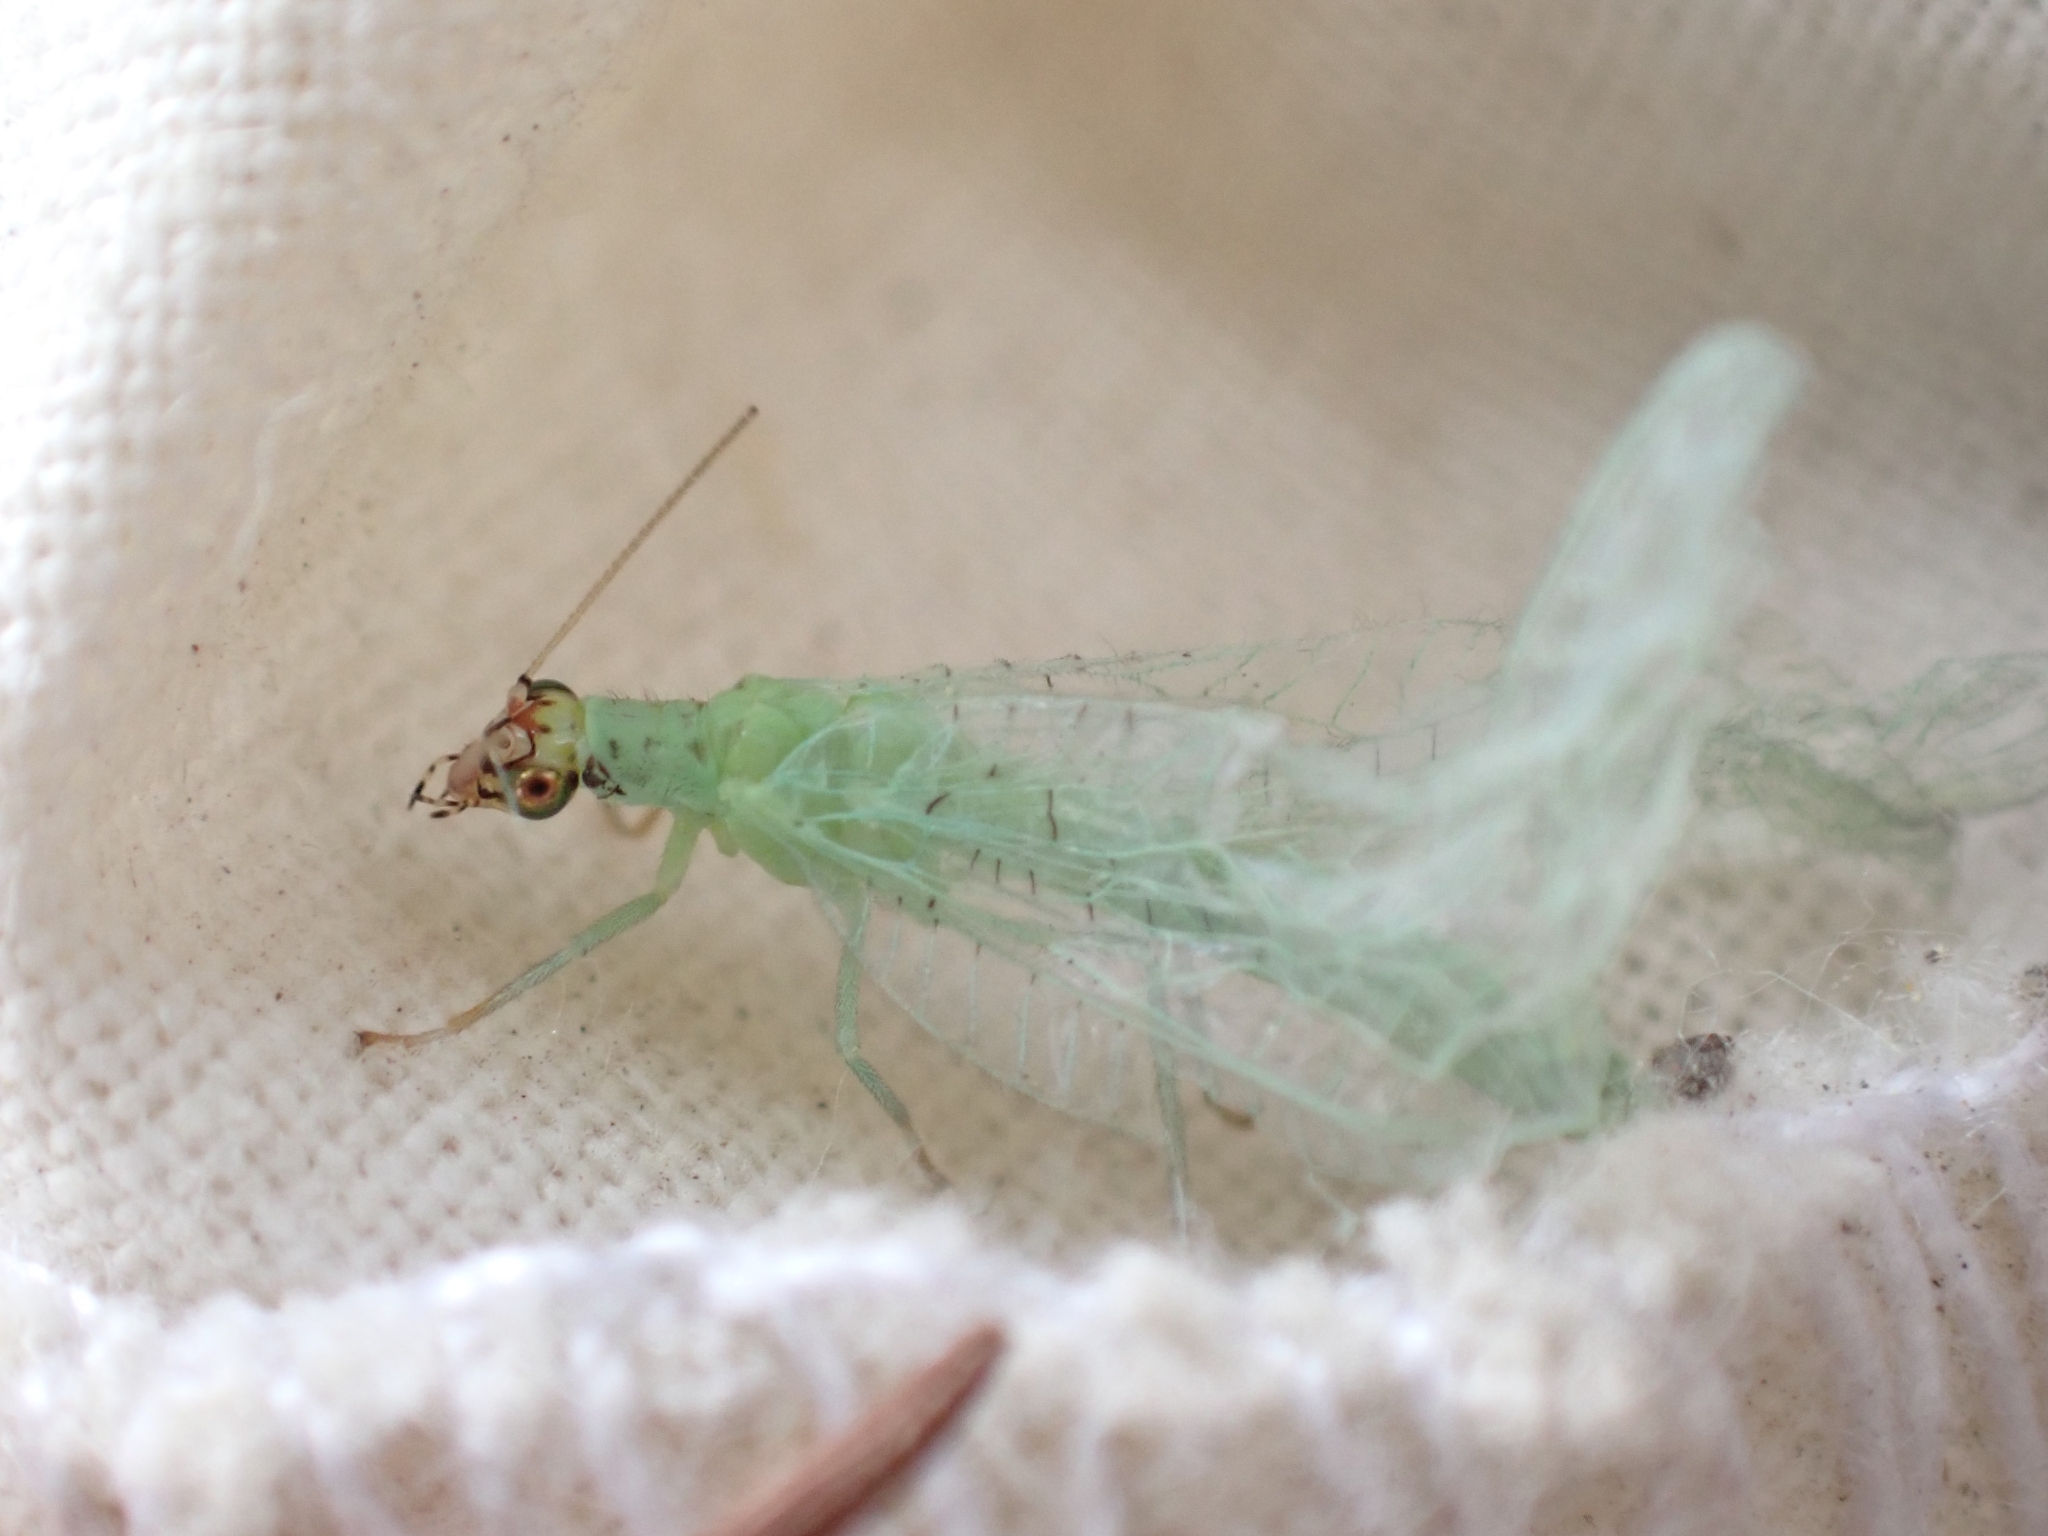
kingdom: Animalia
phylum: Arthropoda
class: Insecta
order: Neuroptera
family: Chrysopidae
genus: Chrysopa
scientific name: Chrysopa oculata
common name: Golden-eyed lacewing
